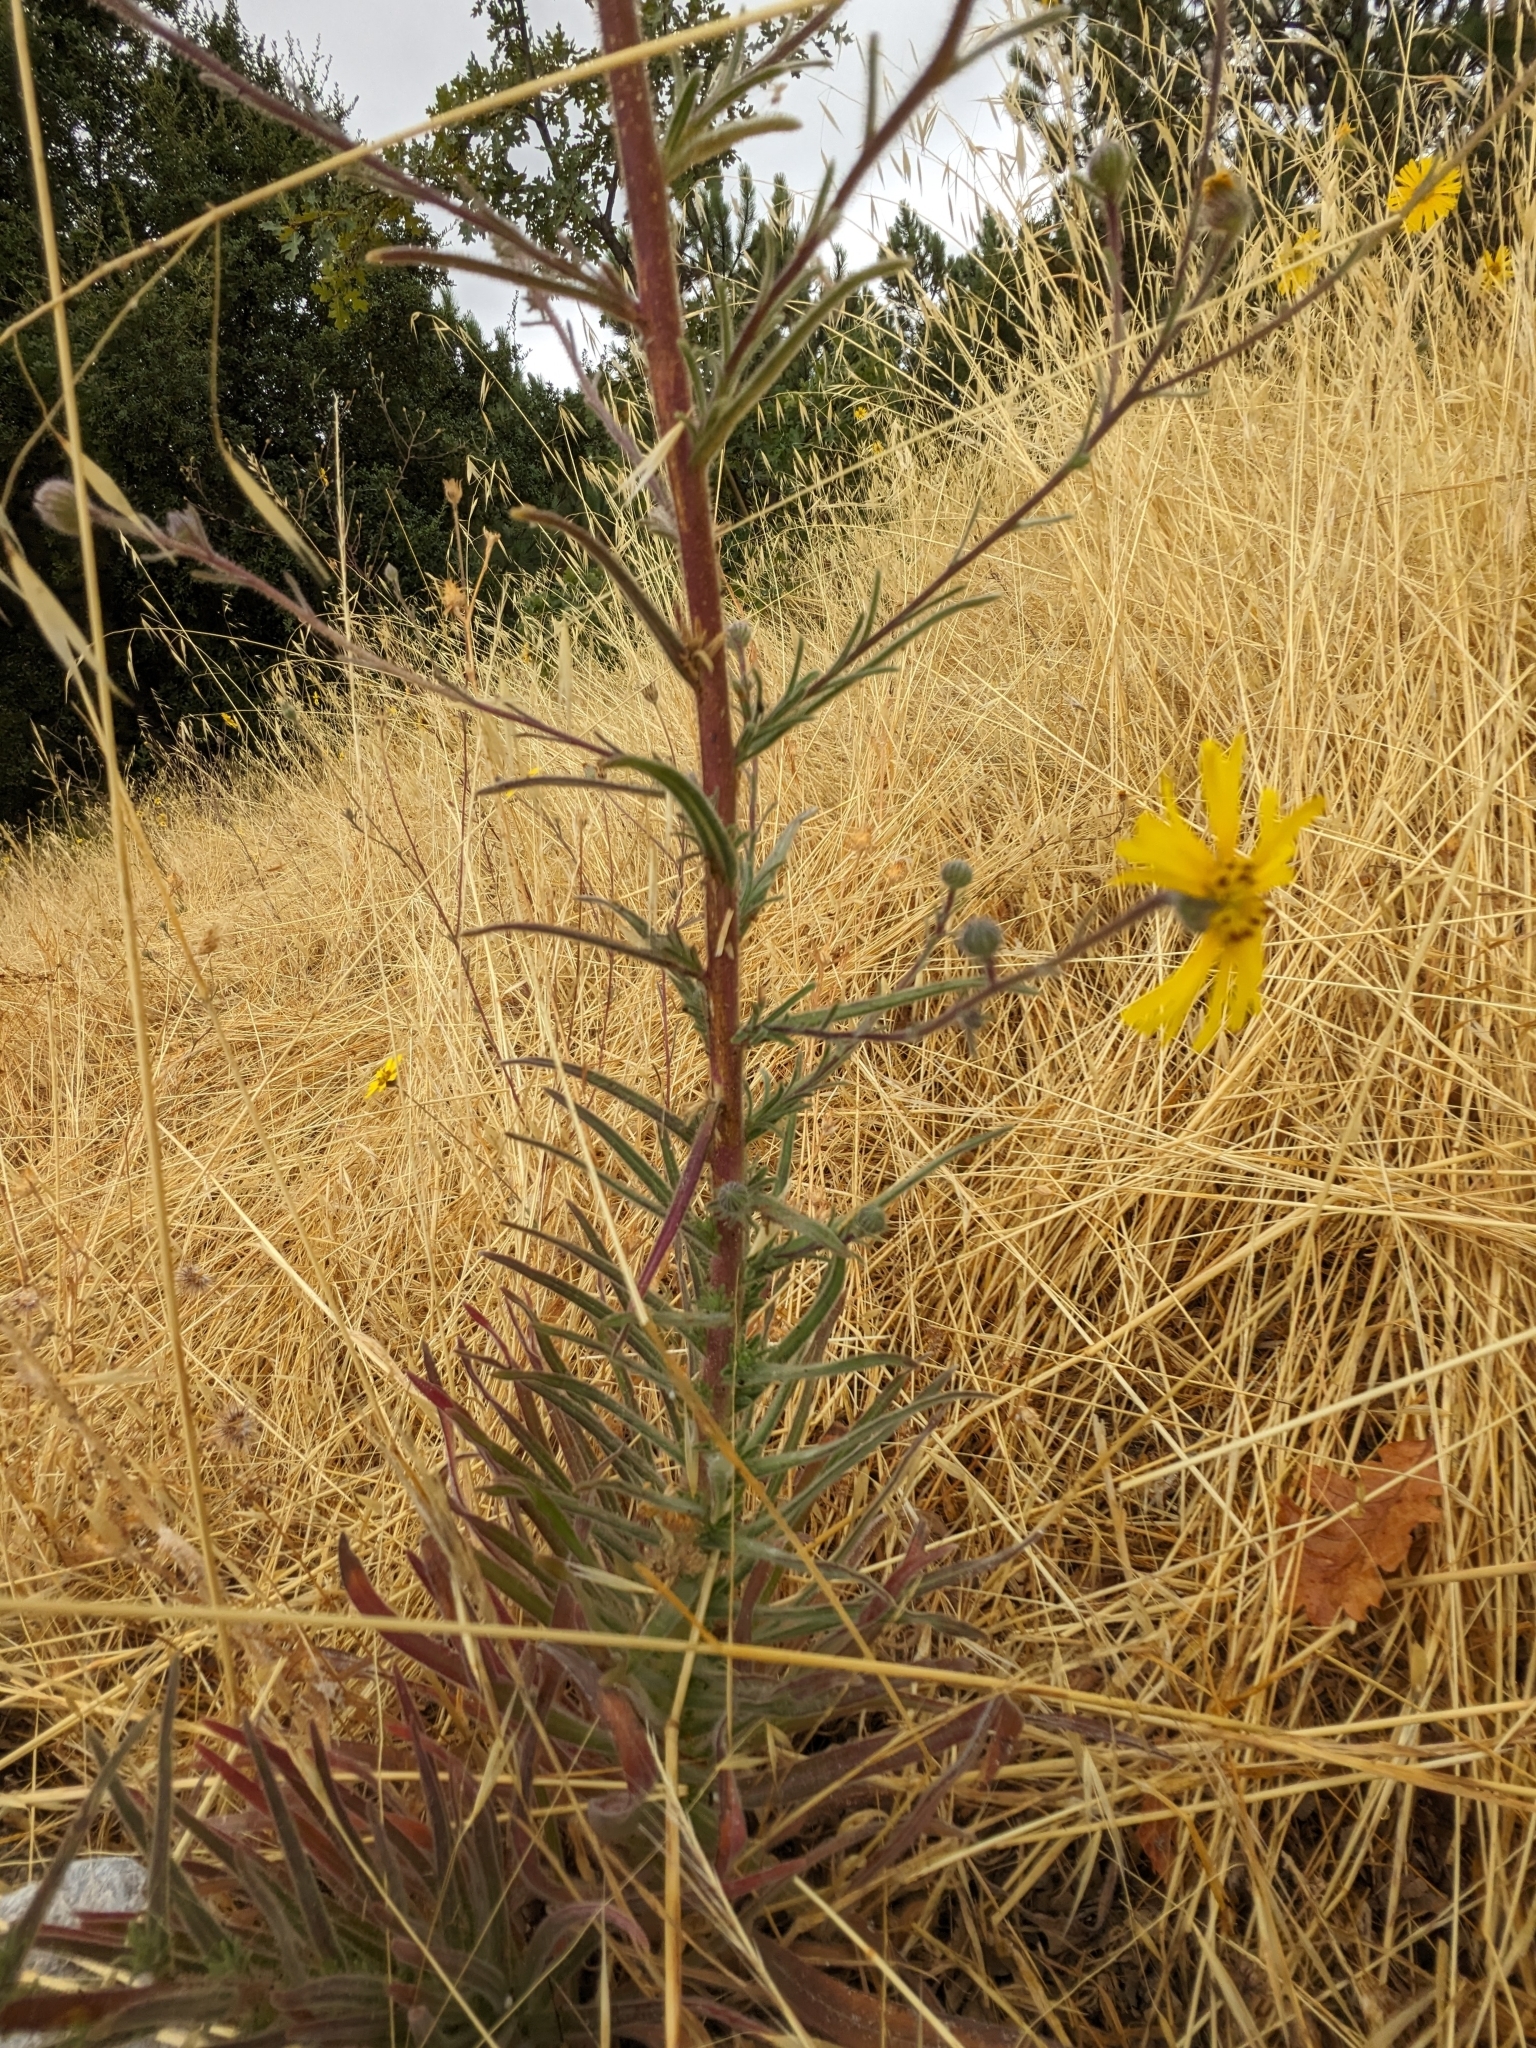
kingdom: Plantae
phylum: Tracheophyta
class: Magnoliopsida
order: Asterales
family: Asteraceae
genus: Madia
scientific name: Madia elegans
